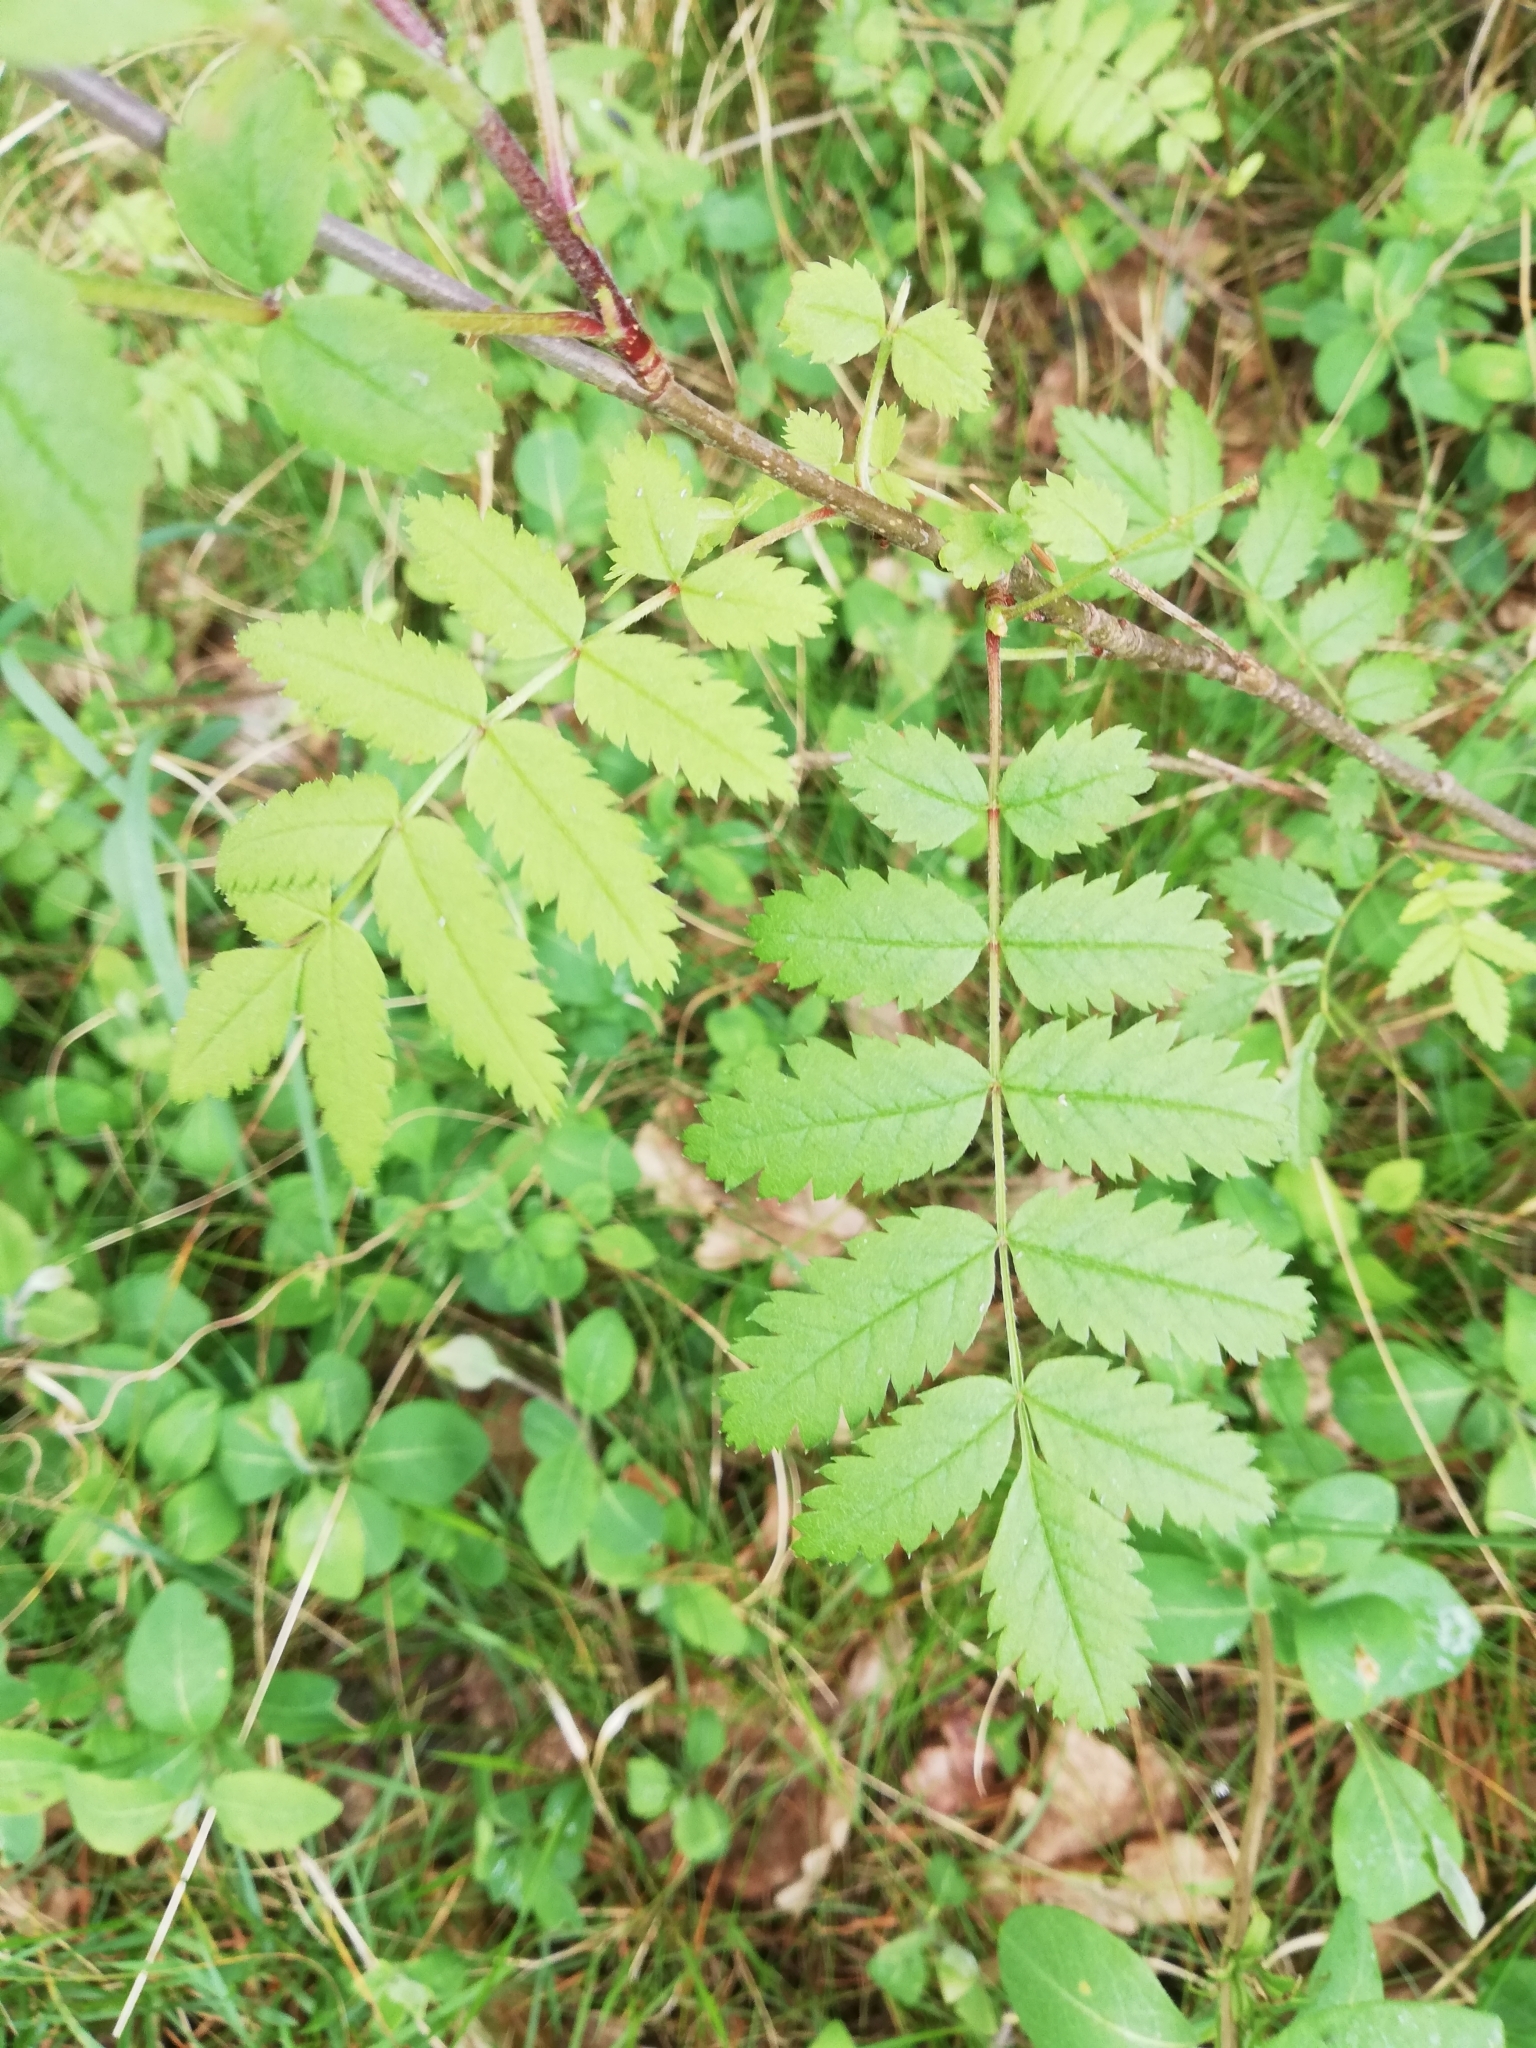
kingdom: Plantae
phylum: Tracheophyta
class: Magnoliopsida
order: Rosales
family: Rosaceae
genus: Sorbus
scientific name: Sorbus aucuparia
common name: Rowan
